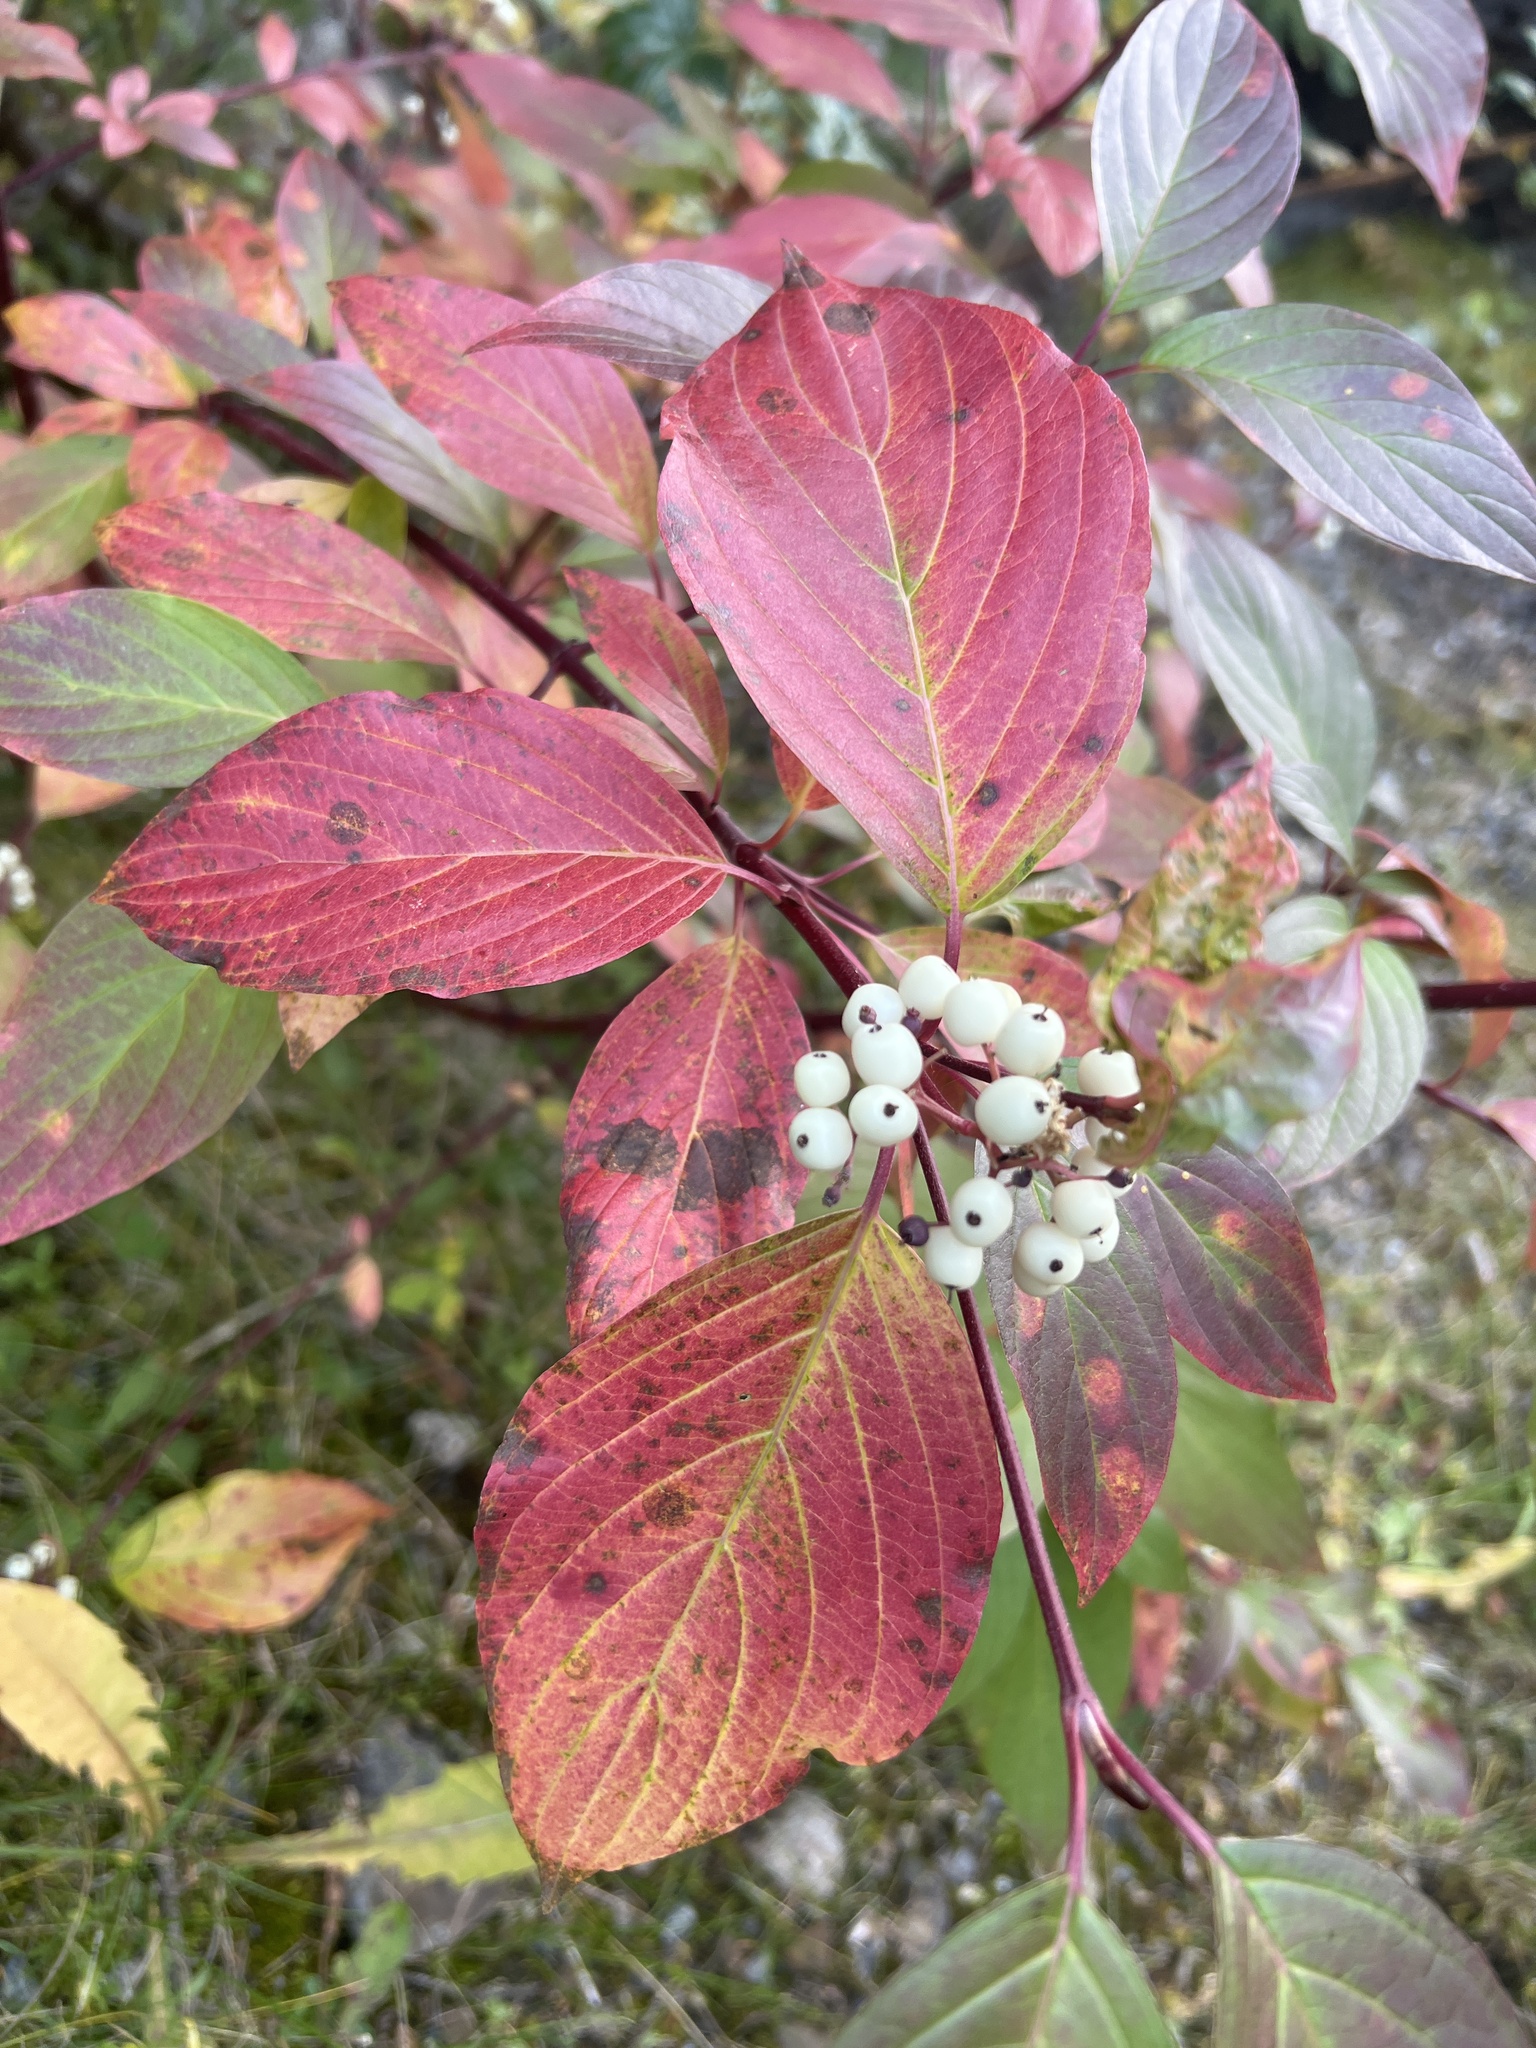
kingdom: Plantae
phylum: Tracheophyta
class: Magnoliopsida
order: Cornales
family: Cornaceae
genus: Cornus
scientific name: Cornus sericea
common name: Red-osier dogwood
